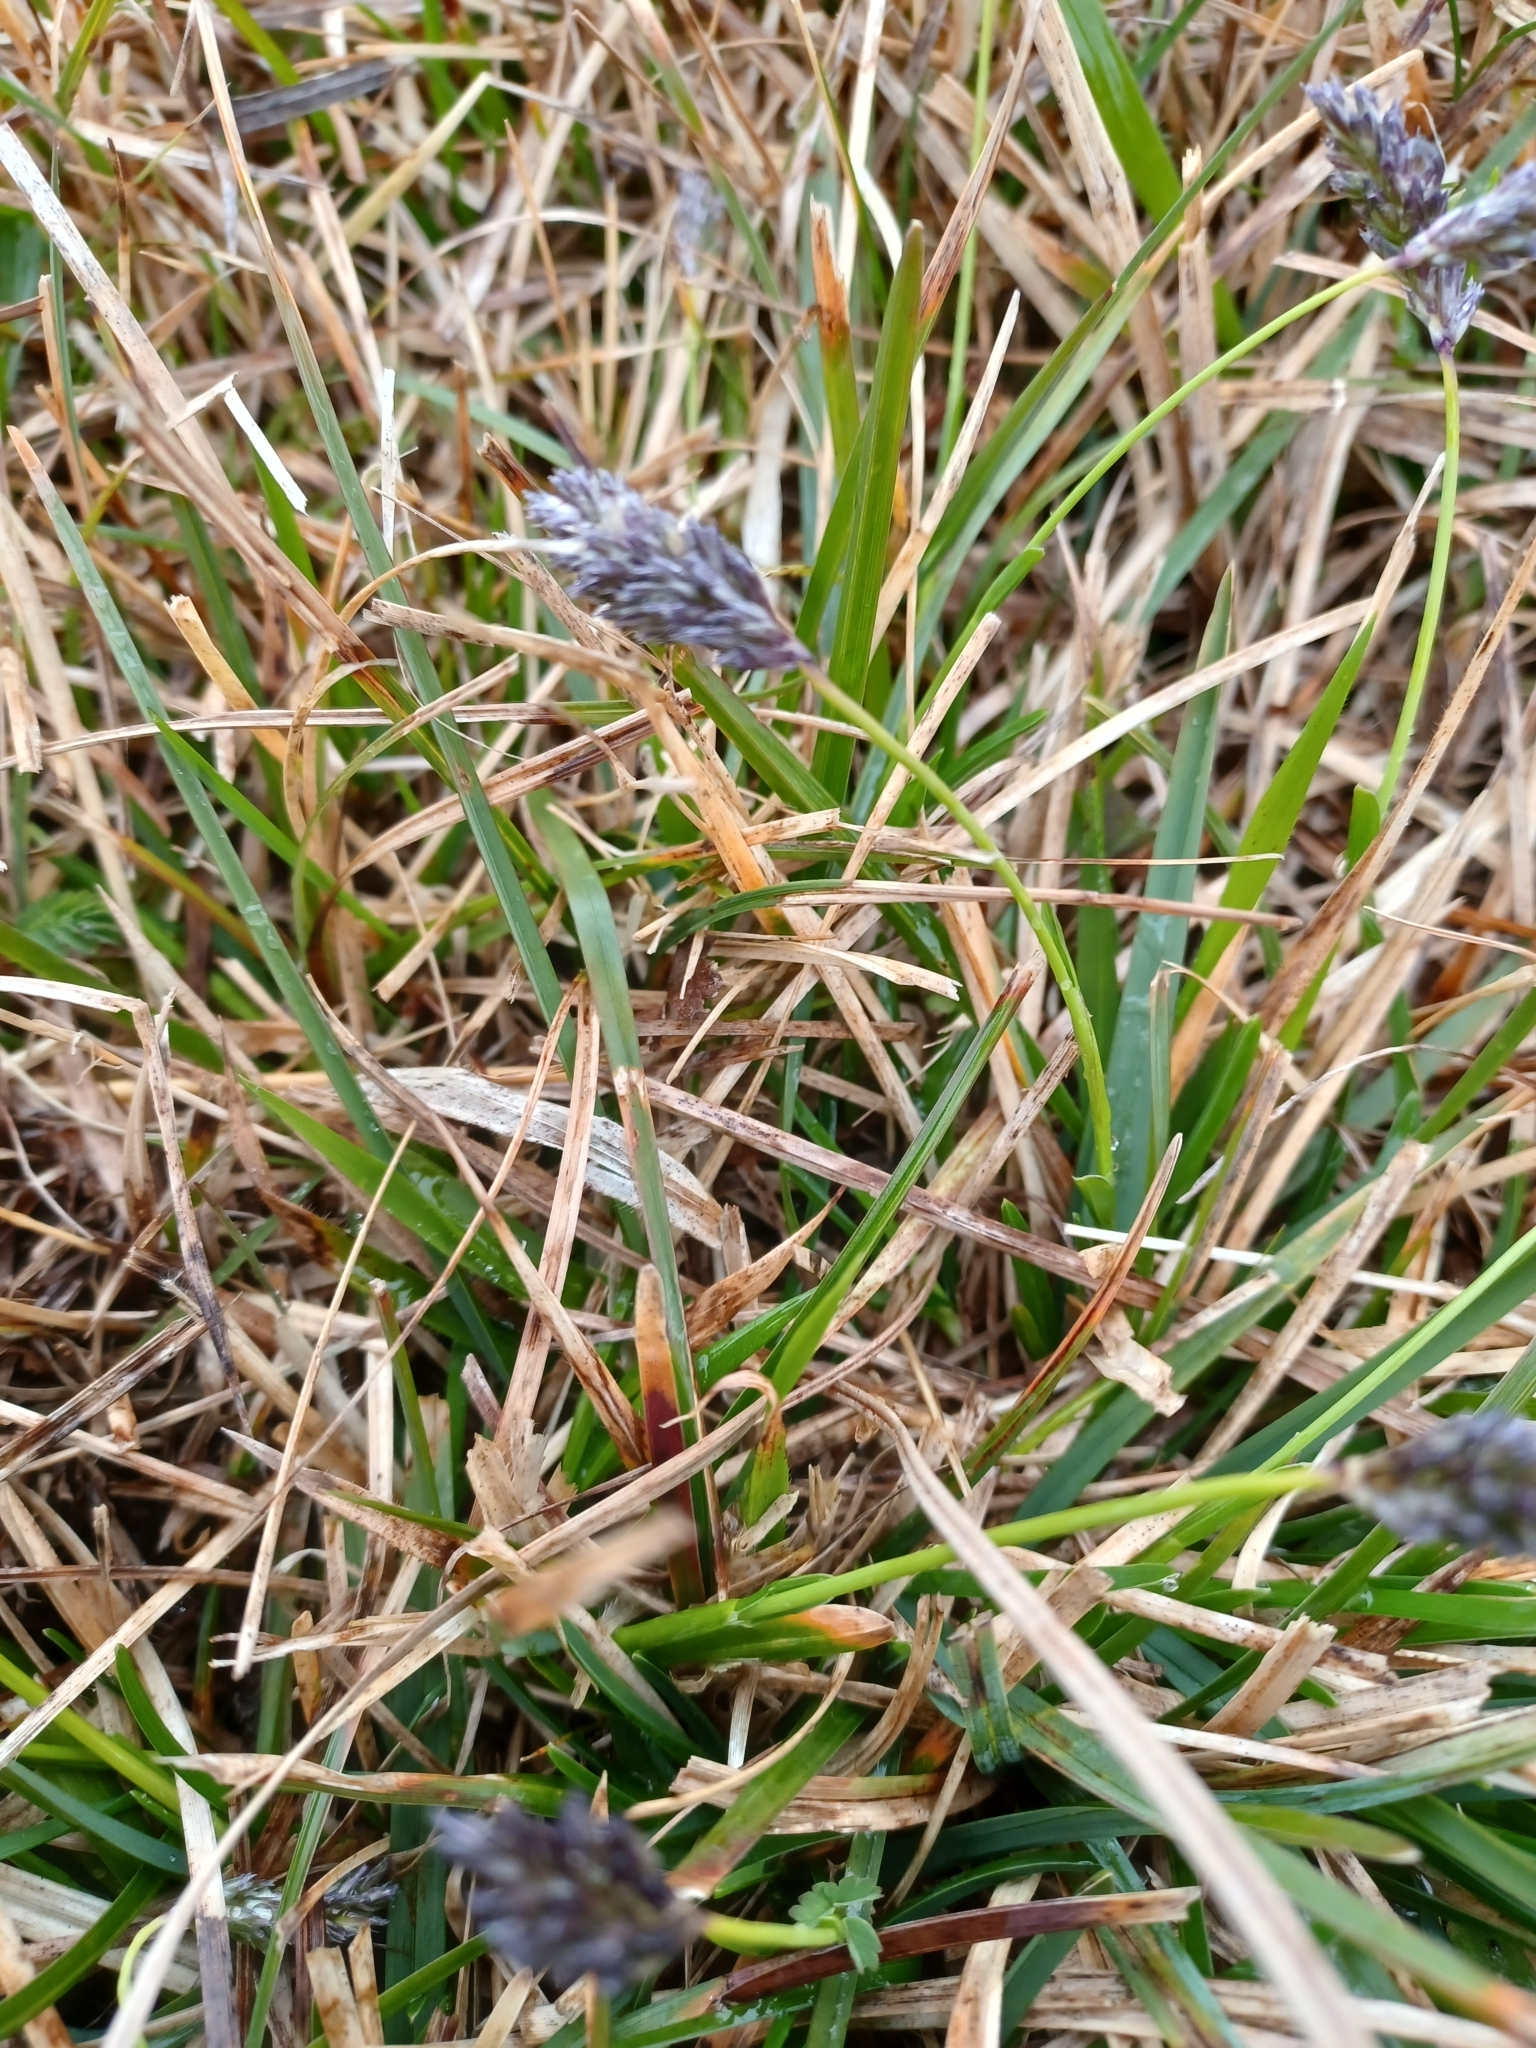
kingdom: Plantae
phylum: Tracheophyta
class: Liliopsida
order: Poales
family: Poaceae
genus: Sesleria
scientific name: Sesleria caerulea
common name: Blue moor-grass
